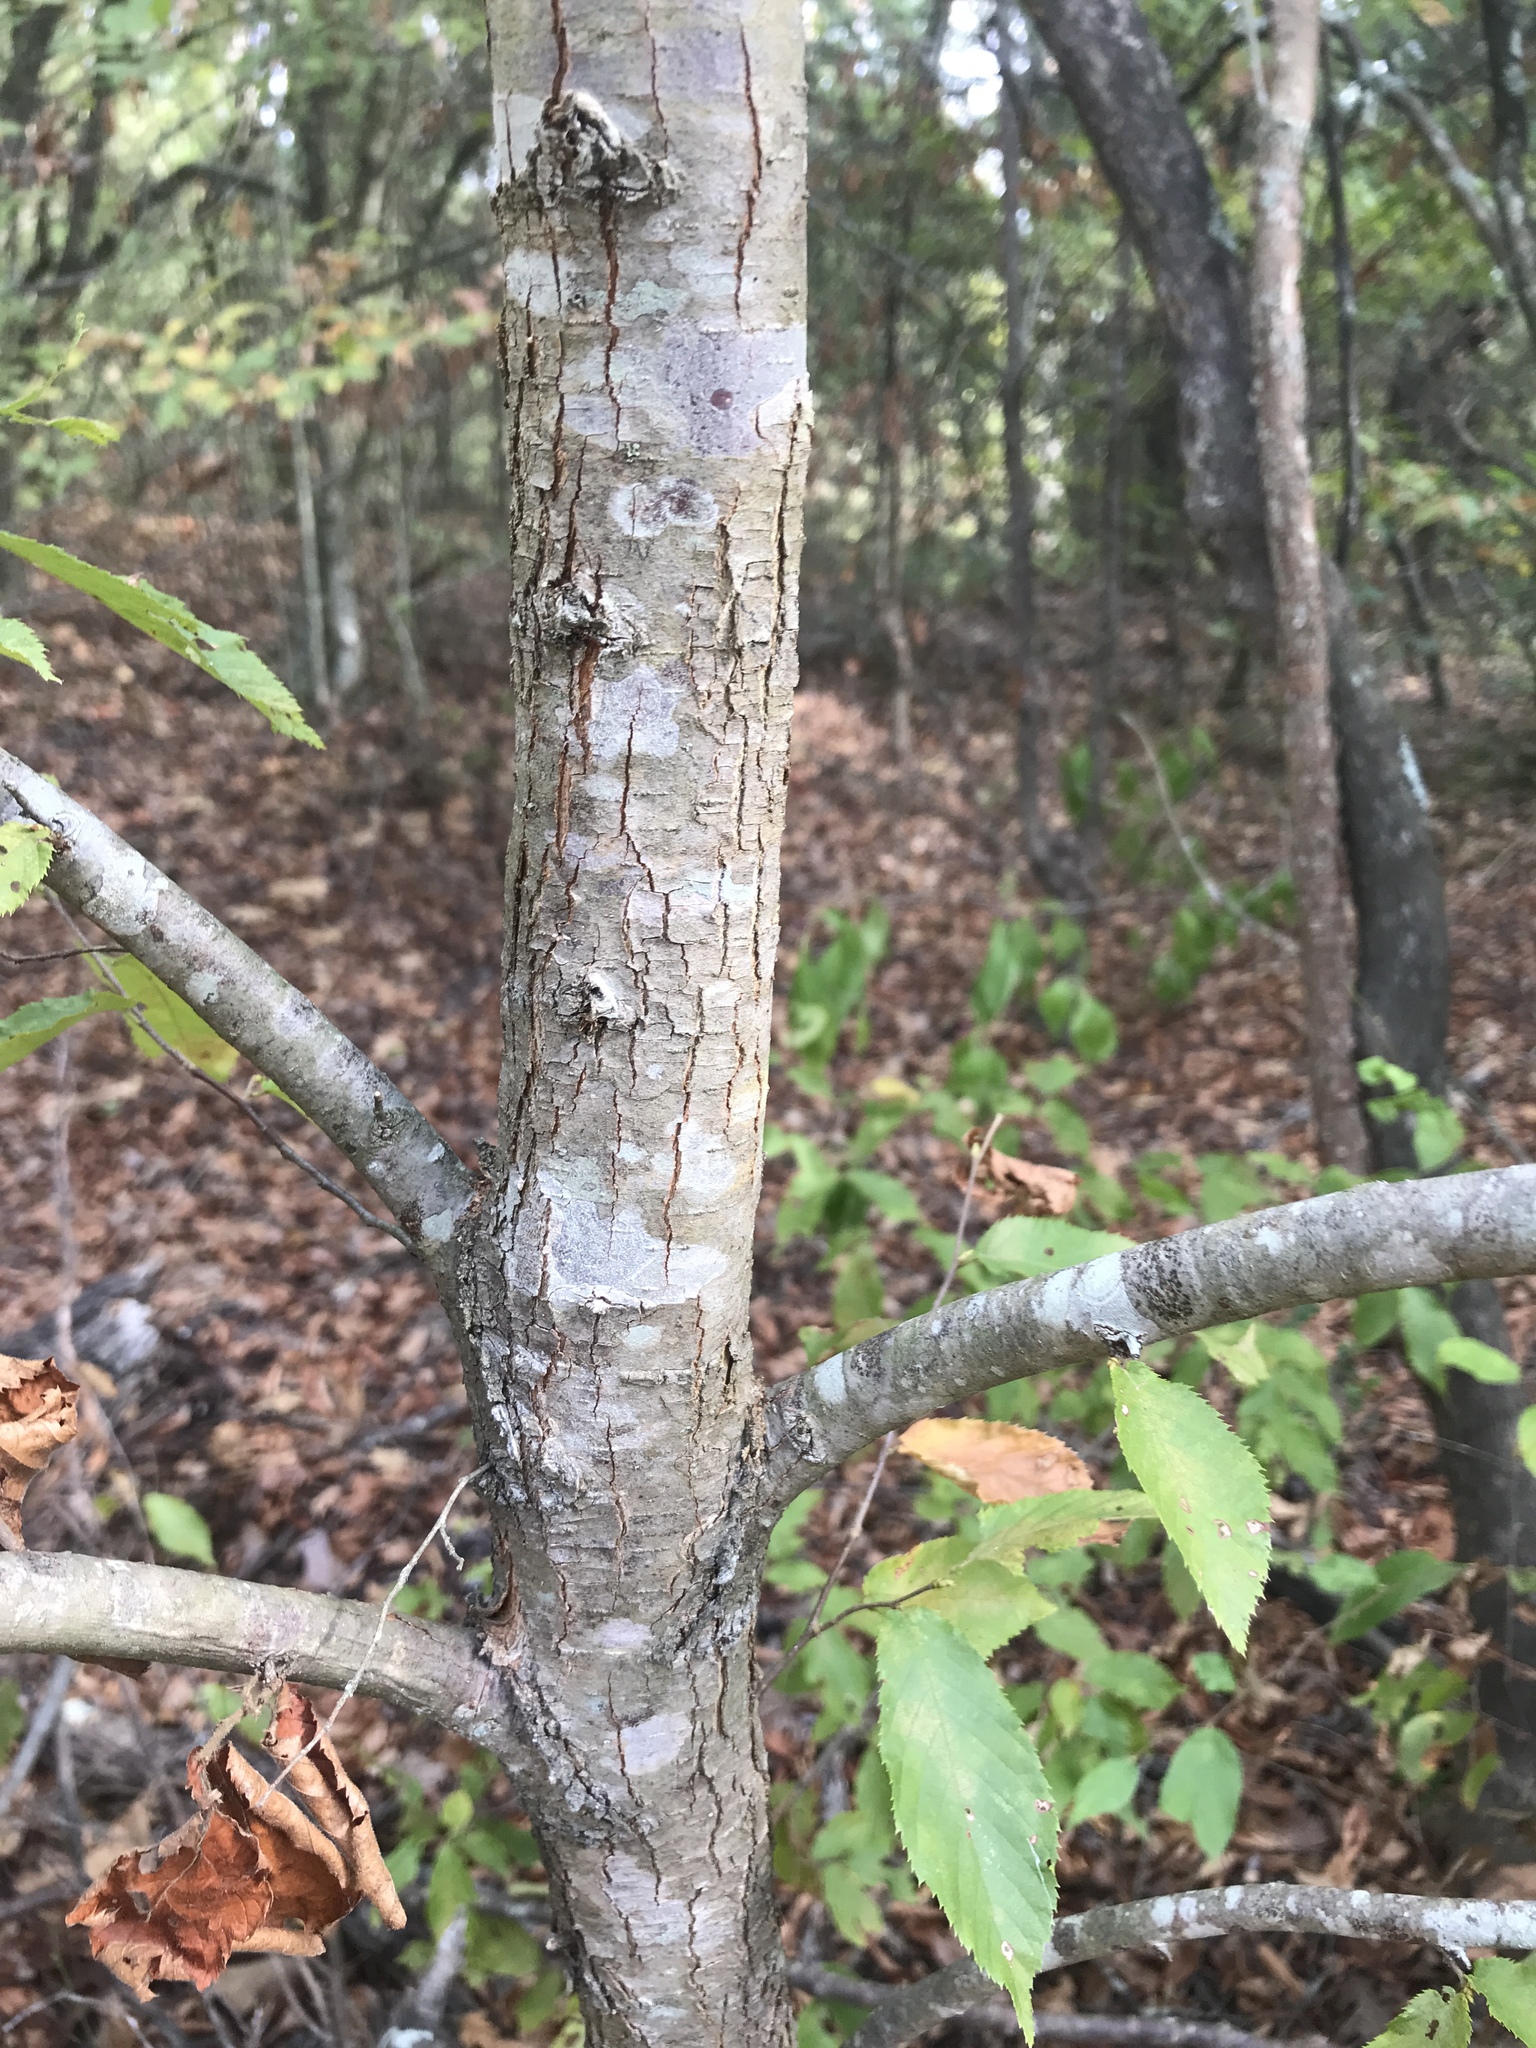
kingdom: Plantae
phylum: Tracheophyta
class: Magnoliopsida
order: Fagales
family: Betulaceae
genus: Ostrya
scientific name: Ostrya virginiana
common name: Ironwood
